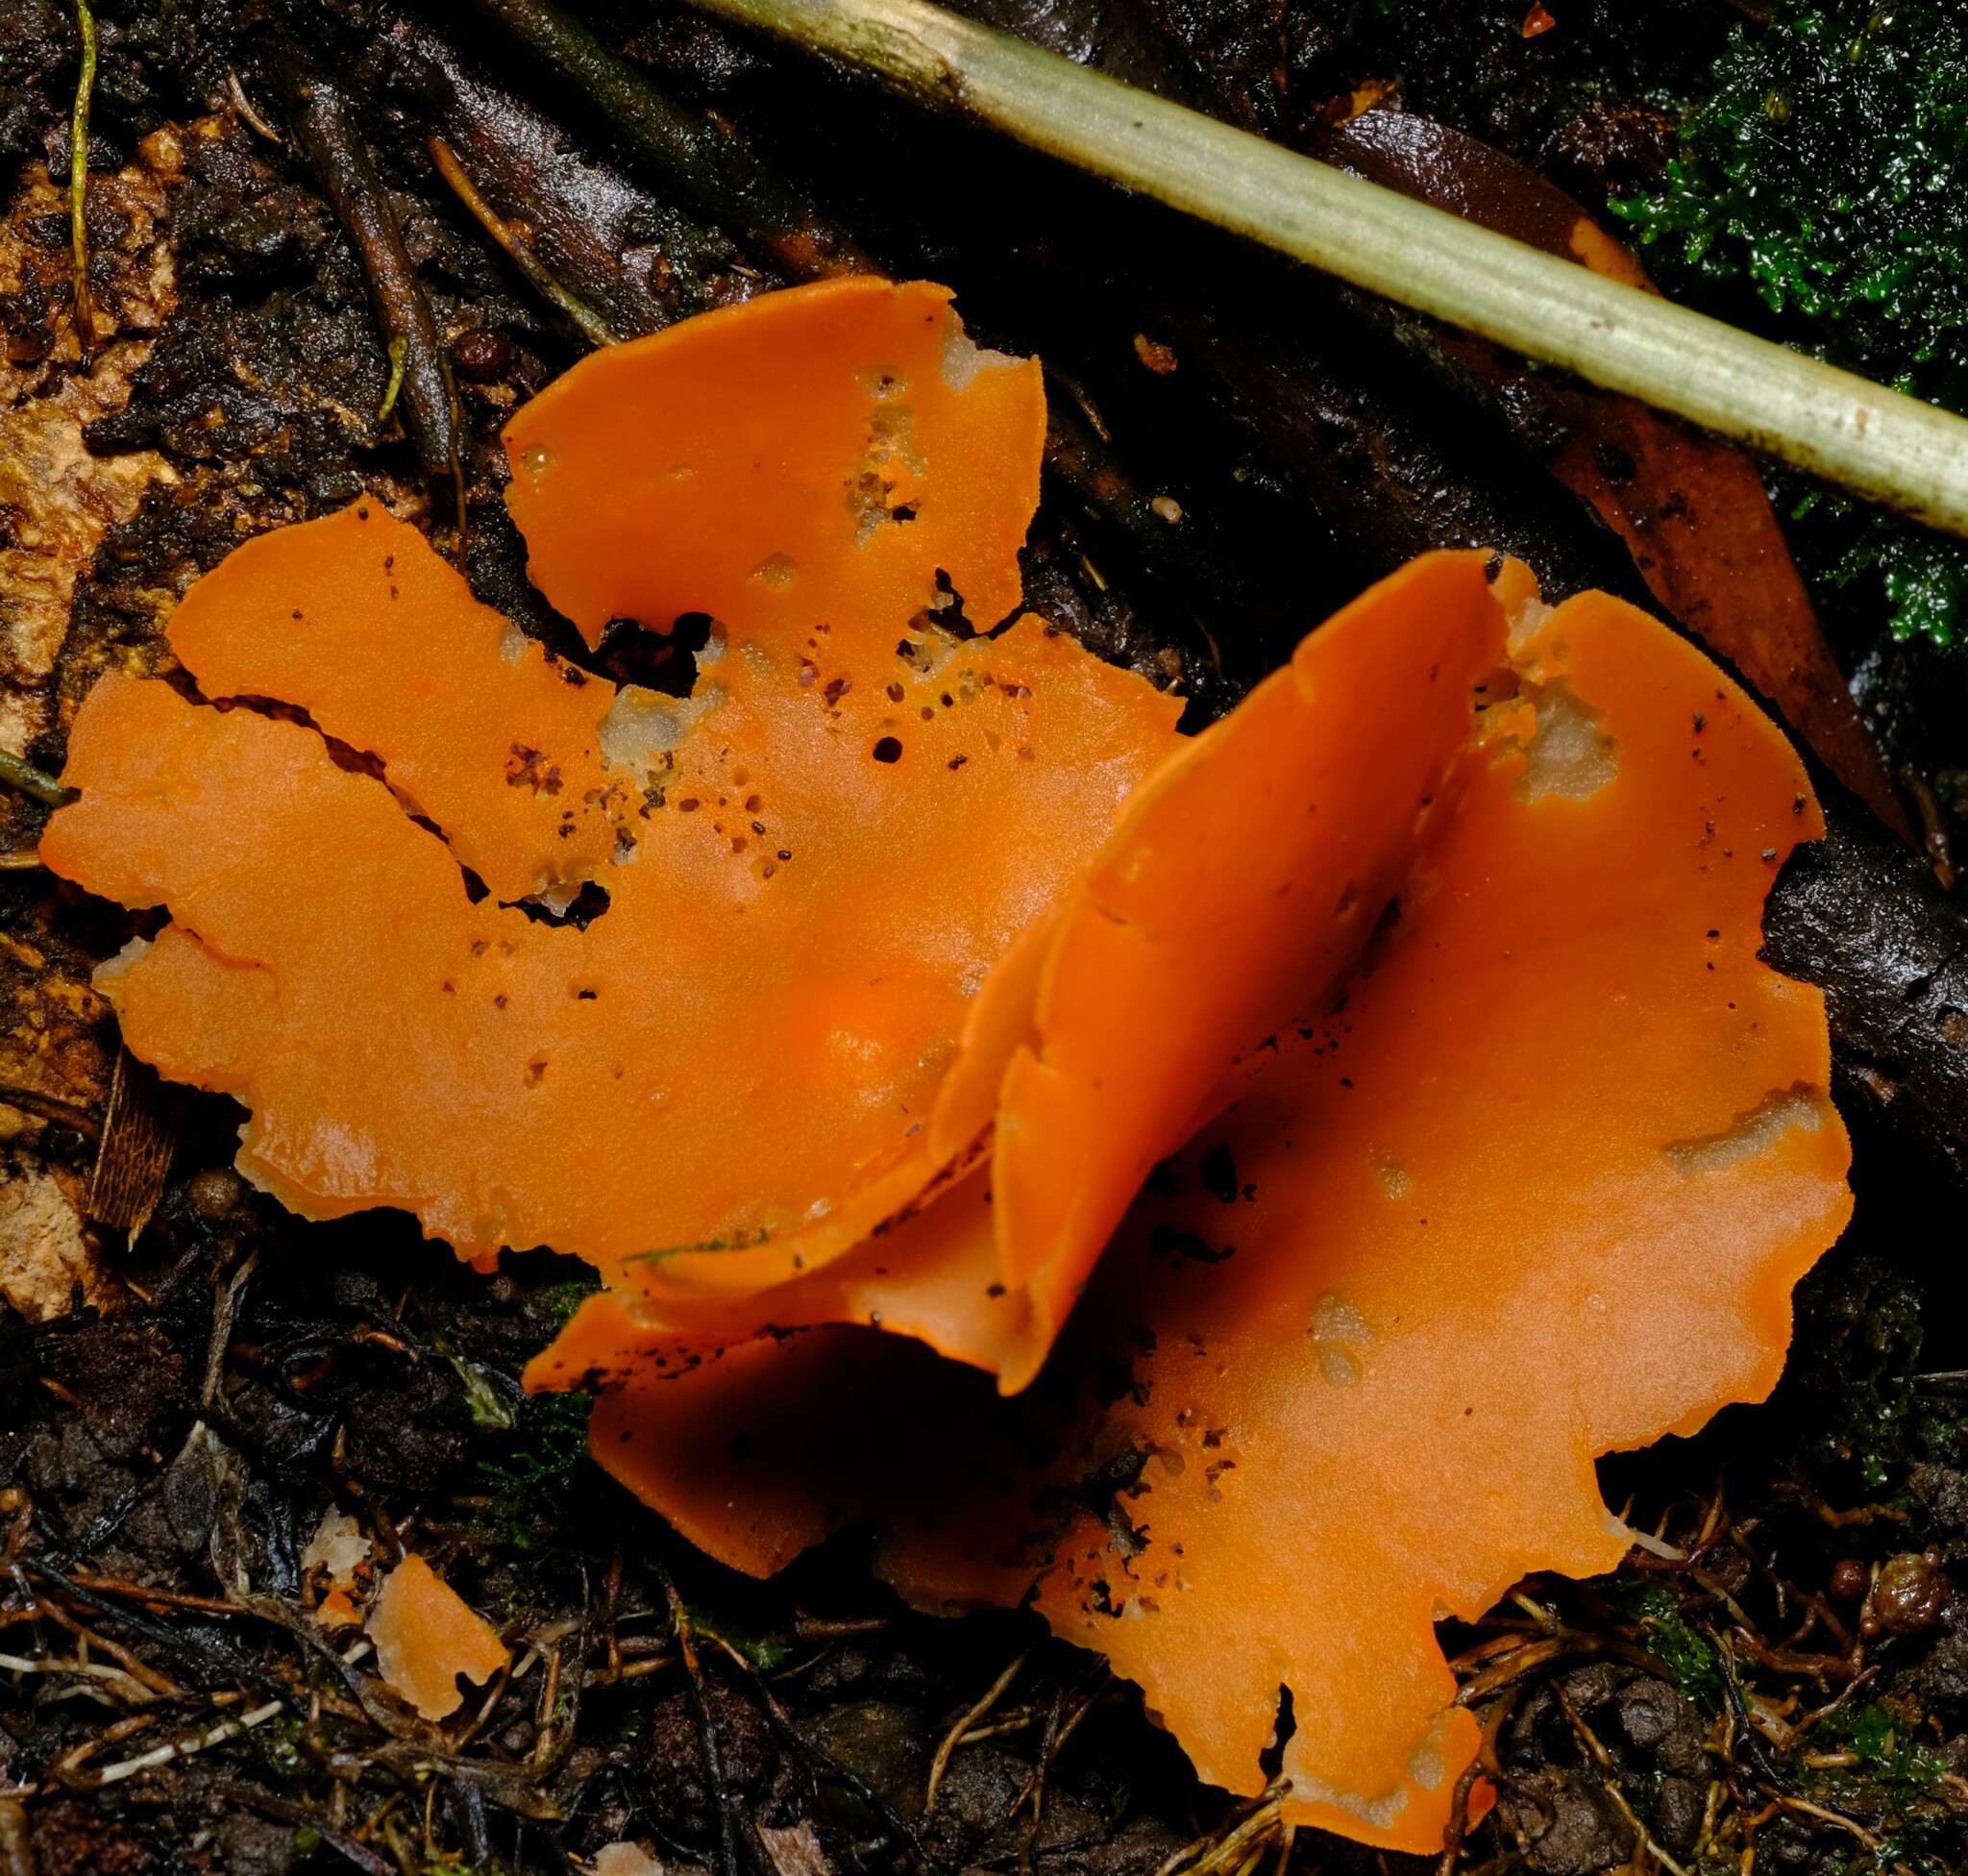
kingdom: Fungi
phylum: Ascomycota
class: Pezizomycetes
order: Pezizales
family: Pyronemataceae
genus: Aleuria
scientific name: Aleuria aurantia
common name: Orange peel fungus
